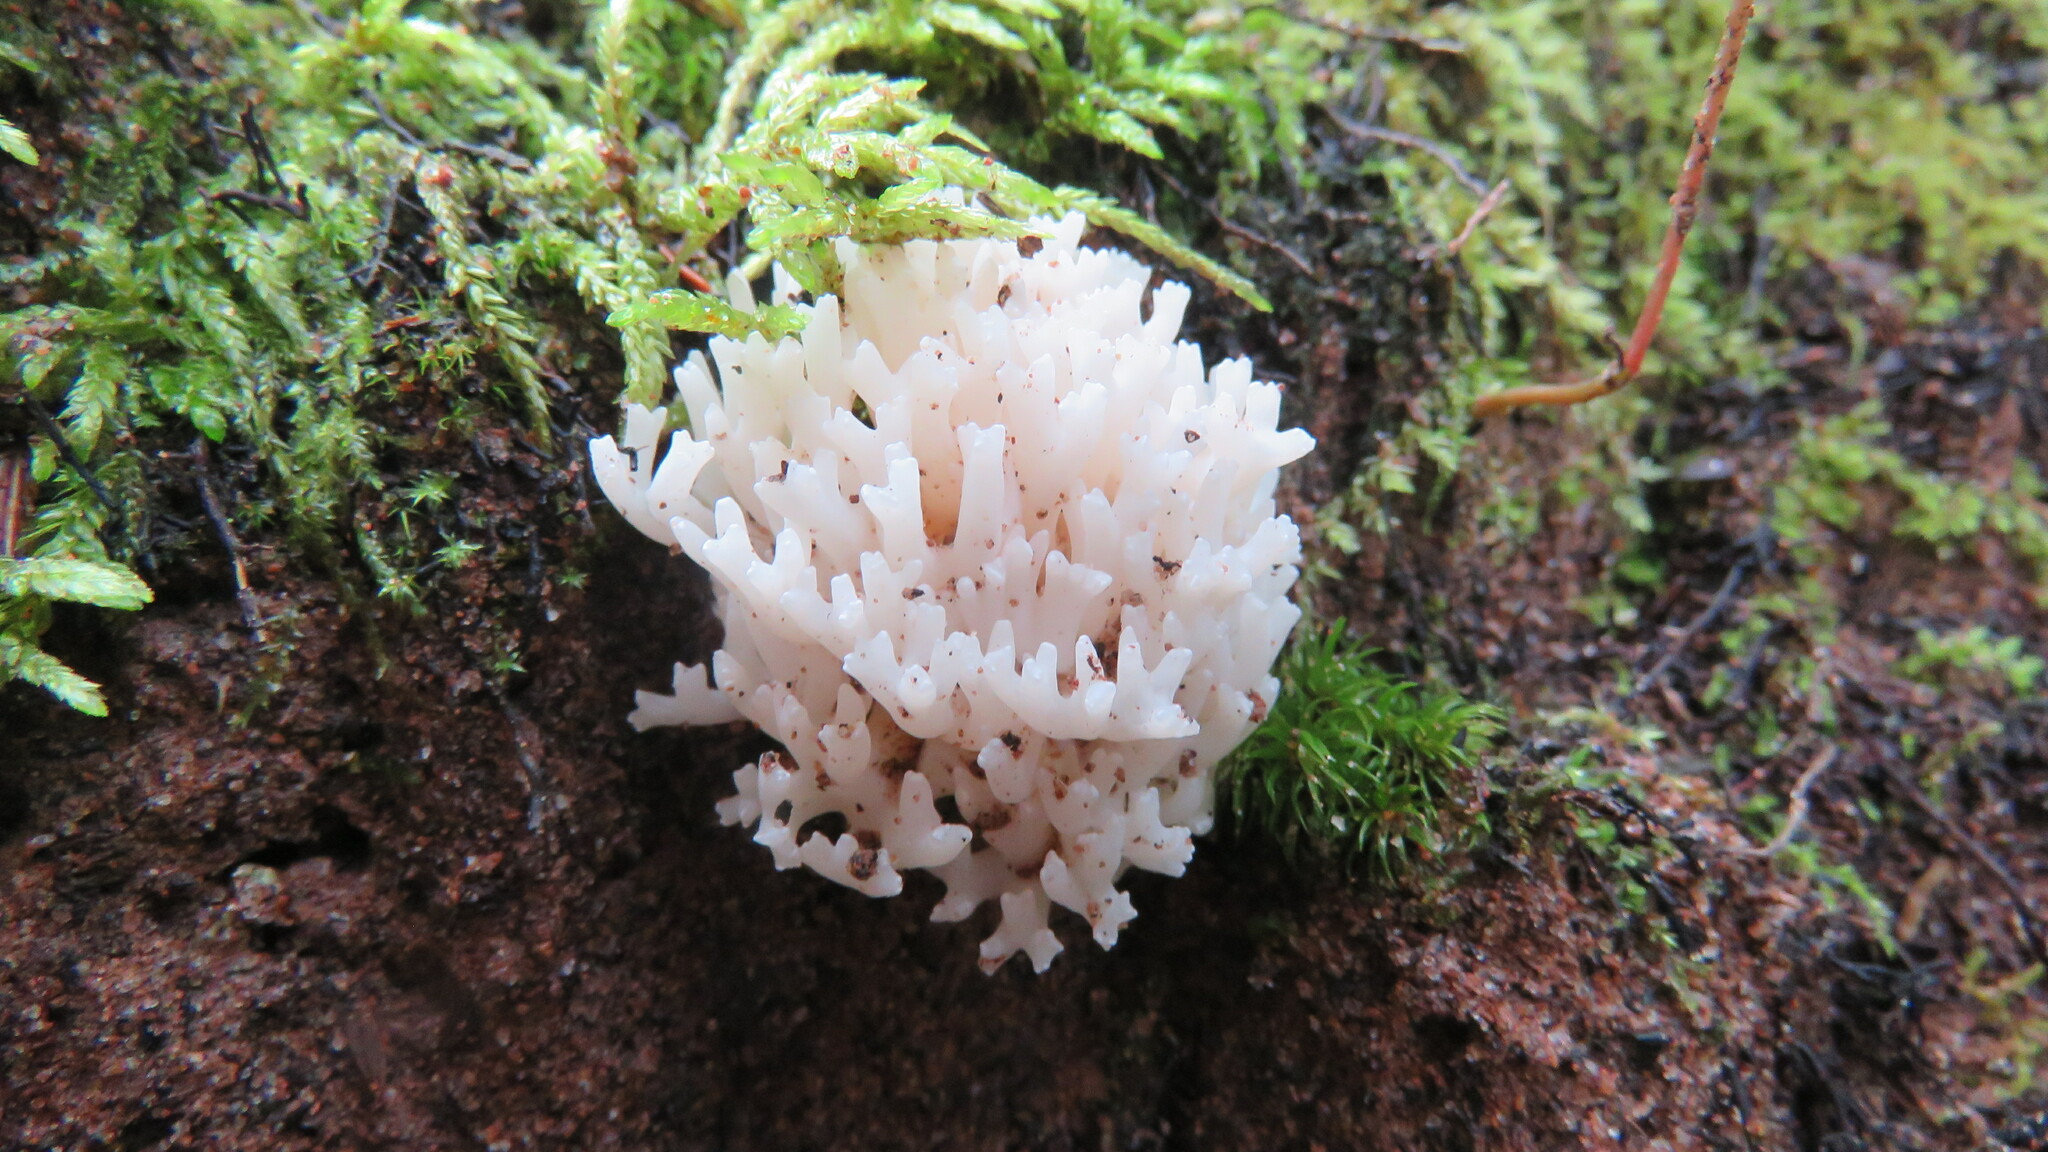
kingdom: Fungi
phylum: Basidiomycota
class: Agaricomycetes
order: Agaricales
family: Clavariaceae
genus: Ramariopsis
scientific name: Ramariopsis kunzei
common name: Ivory coral
